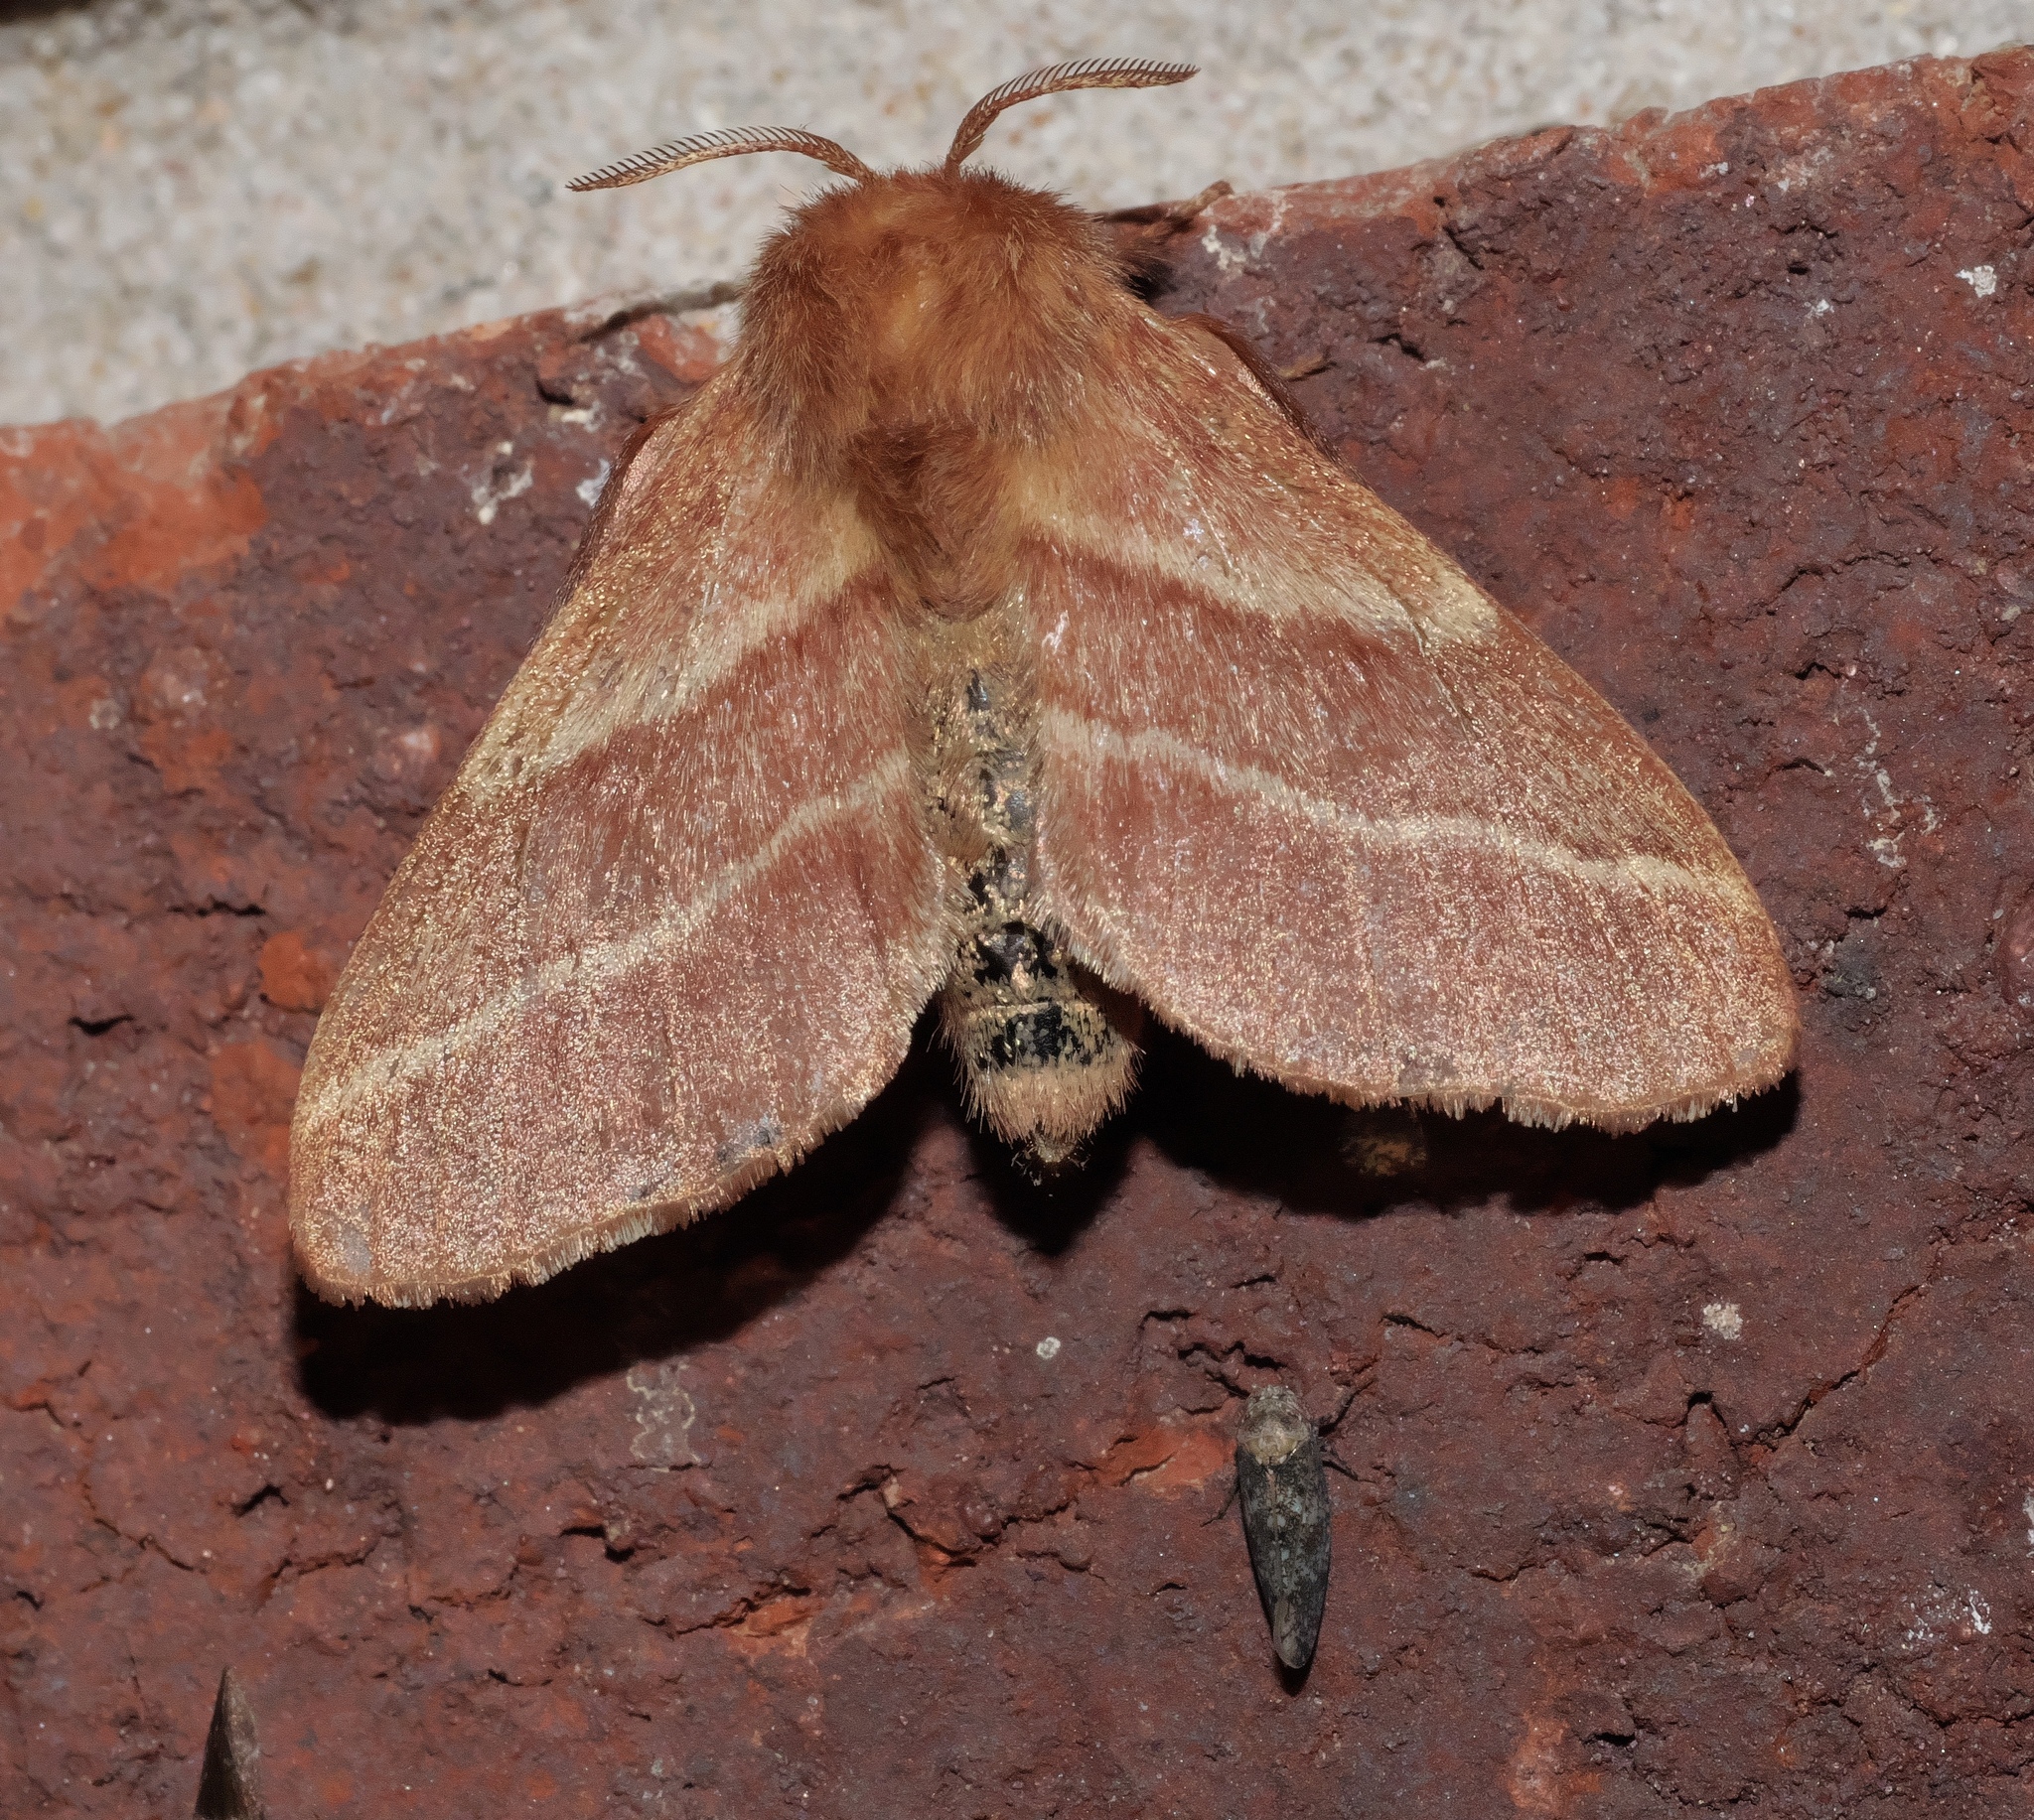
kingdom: Animalia
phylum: Arthropoda
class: Insecta
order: Lepidoptera
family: Lasiocampidae
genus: Malacosoma
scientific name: Malacosoma americana
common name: Eastern tent caterpillar moth
